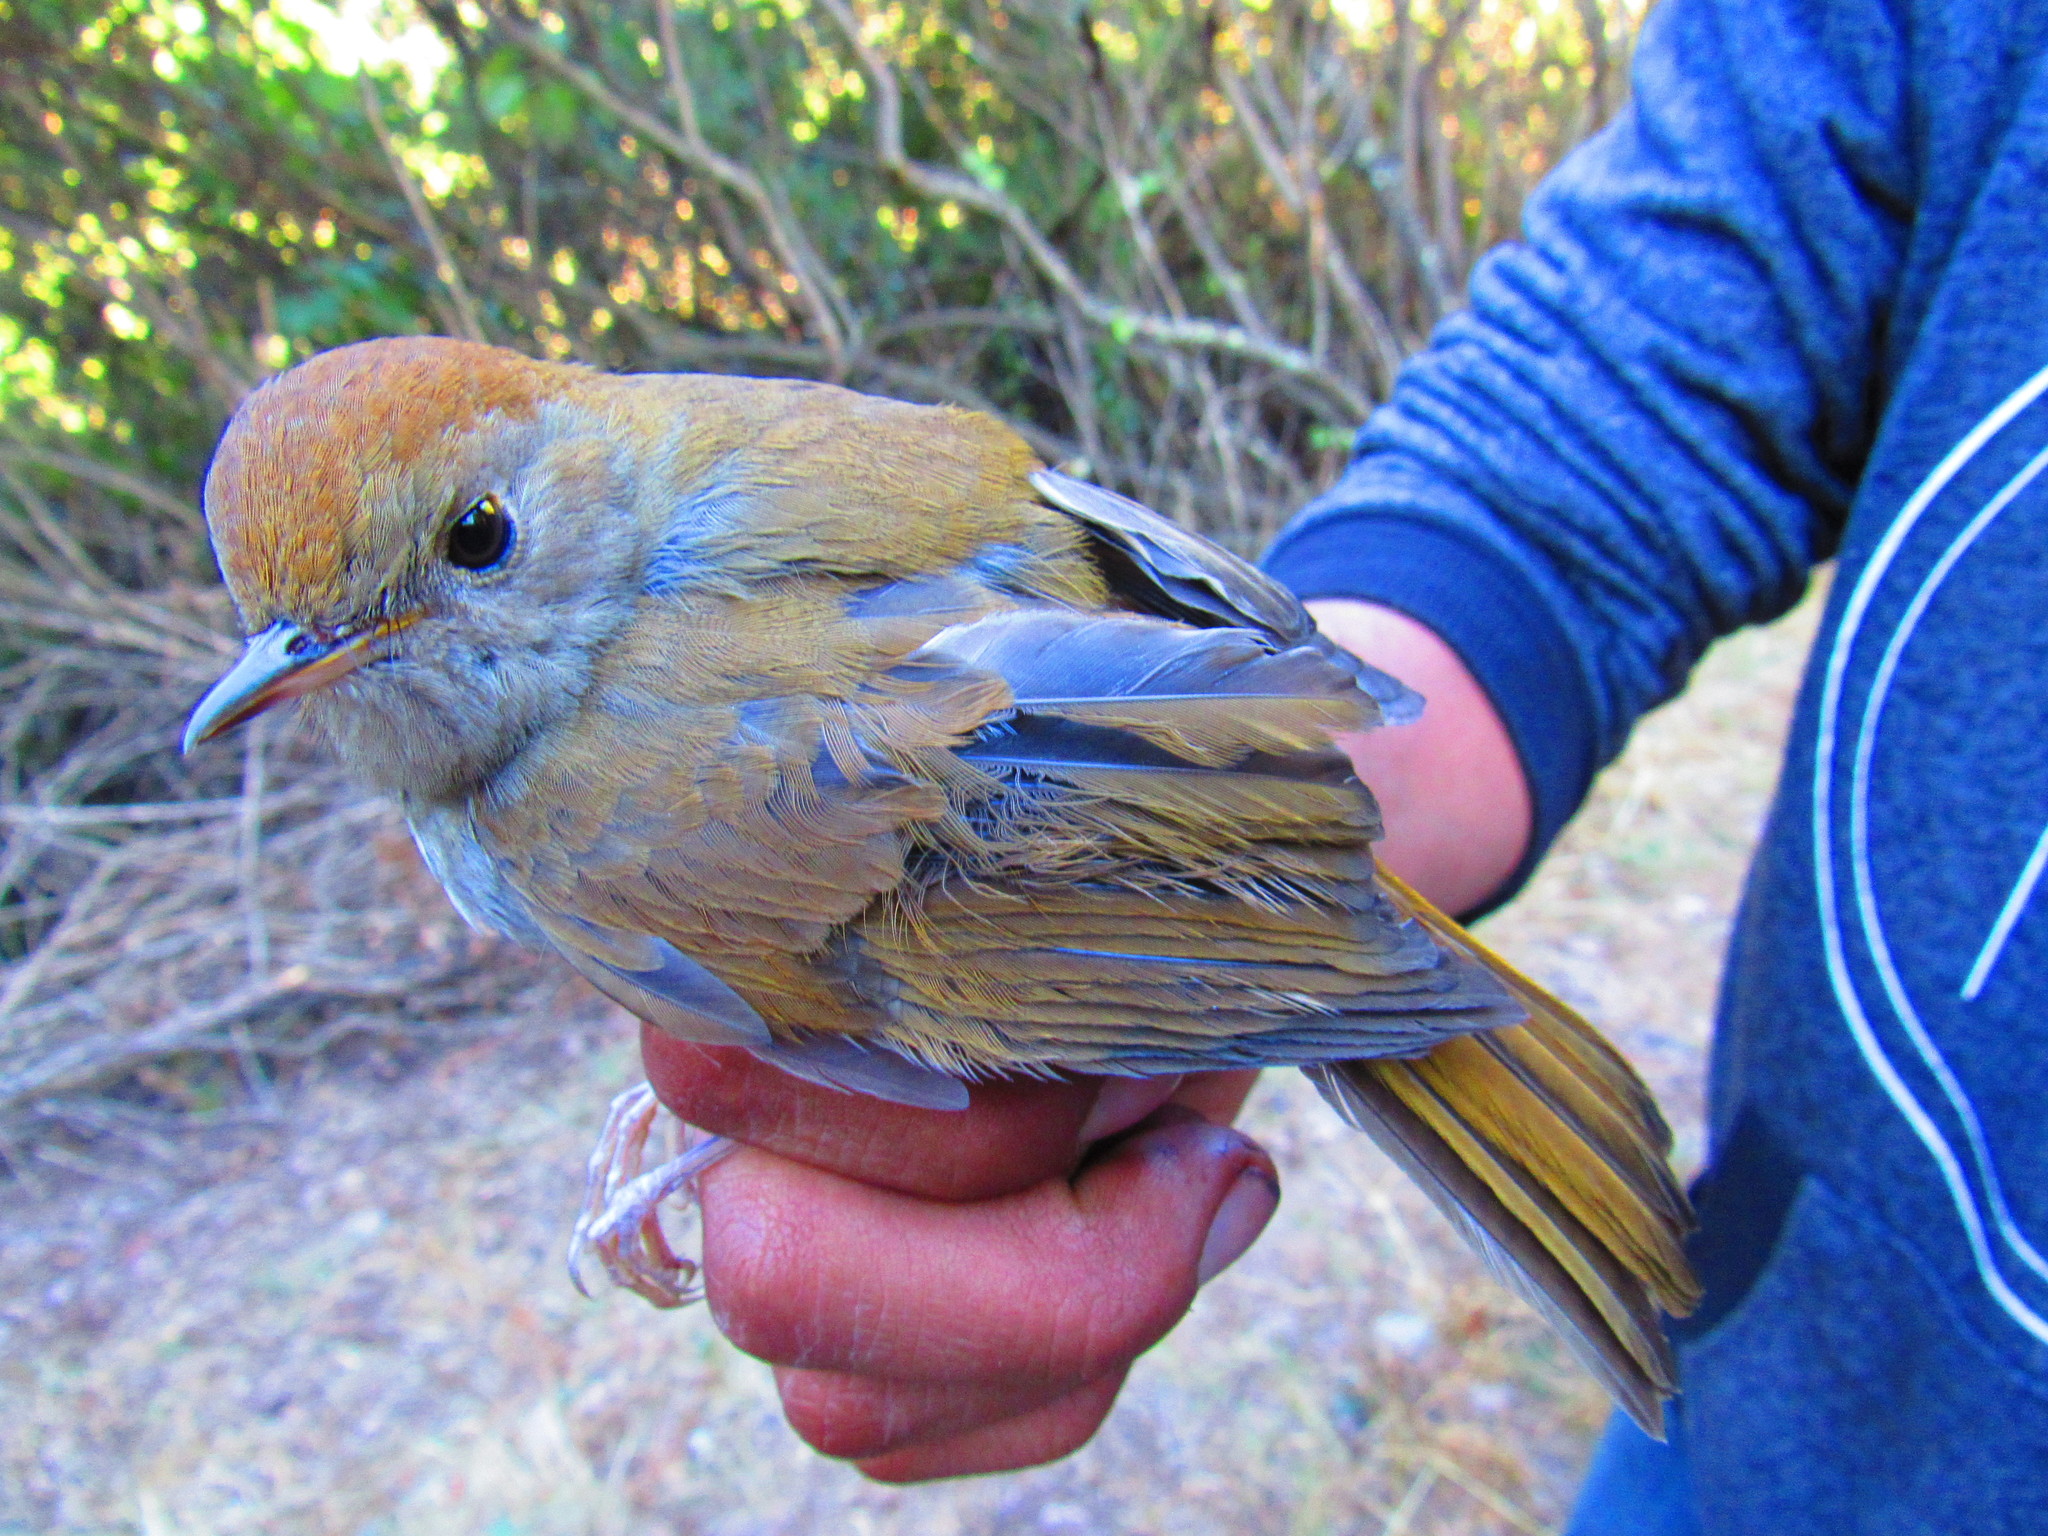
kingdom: Animalia
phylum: Chordata
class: Aves
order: Passeriformes
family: Turdidae
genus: Catharus
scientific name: Catharus occidentalis
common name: Russet nightingale-thrush
